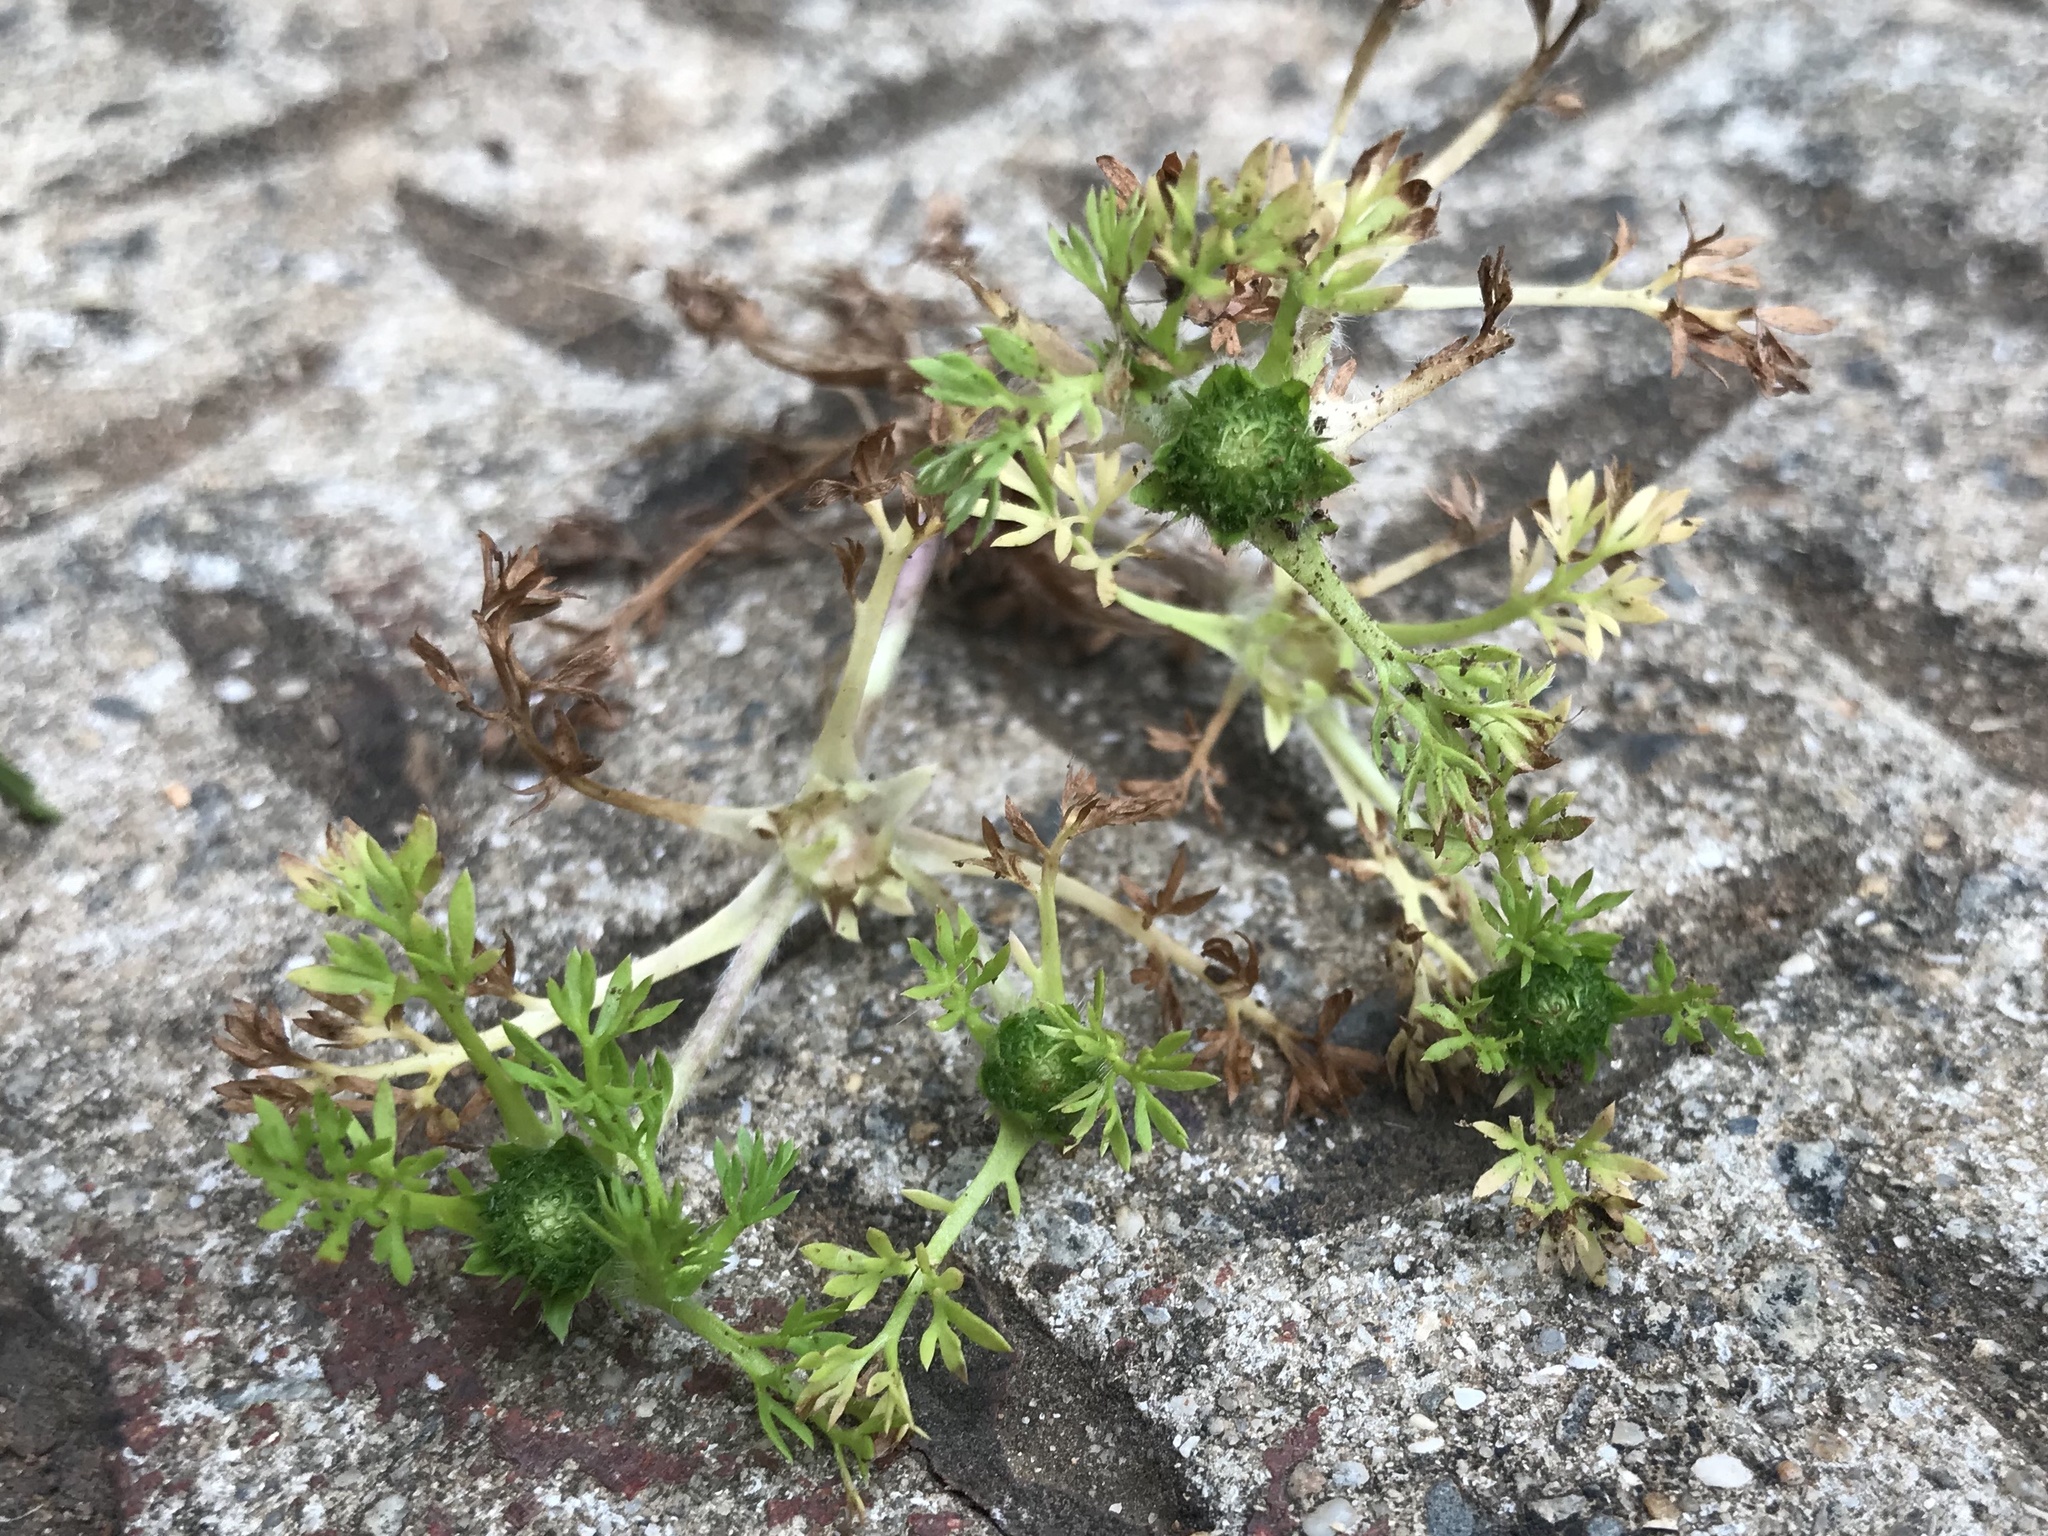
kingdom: Plantae
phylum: Tracheophyta
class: Magnoliopsida
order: Asterales
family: Asteraceae
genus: Soliva
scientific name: Soliva sessilis
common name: Field burrweed
